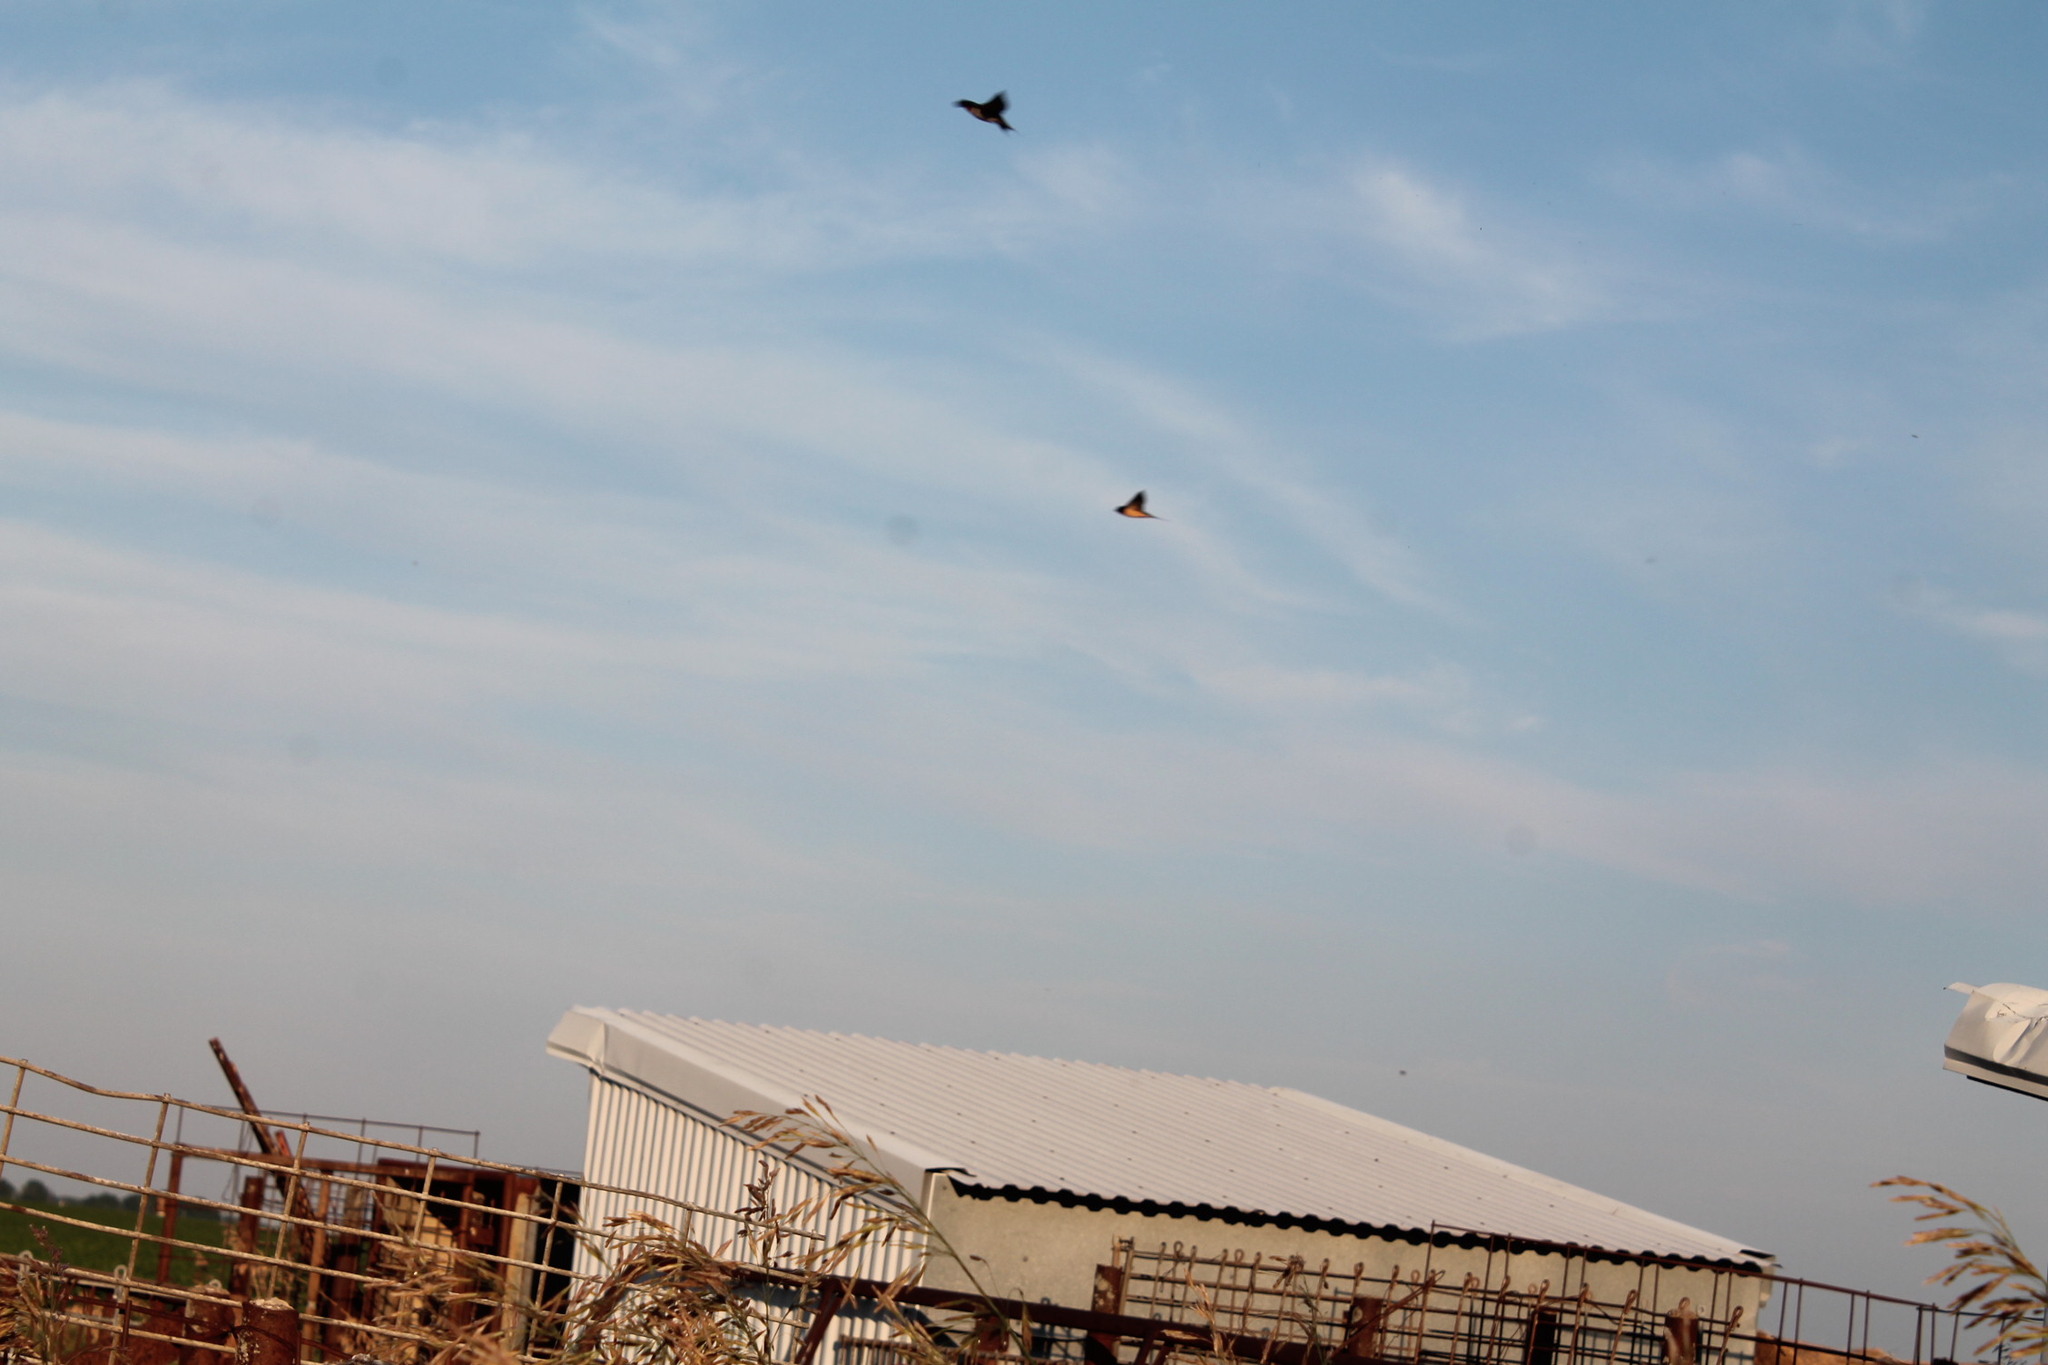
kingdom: Animalia
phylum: Chordata
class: Aves
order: Passeriformes
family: Hirundinidae
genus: Hirundo
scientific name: Hirundo rustica
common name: Barn swallow
